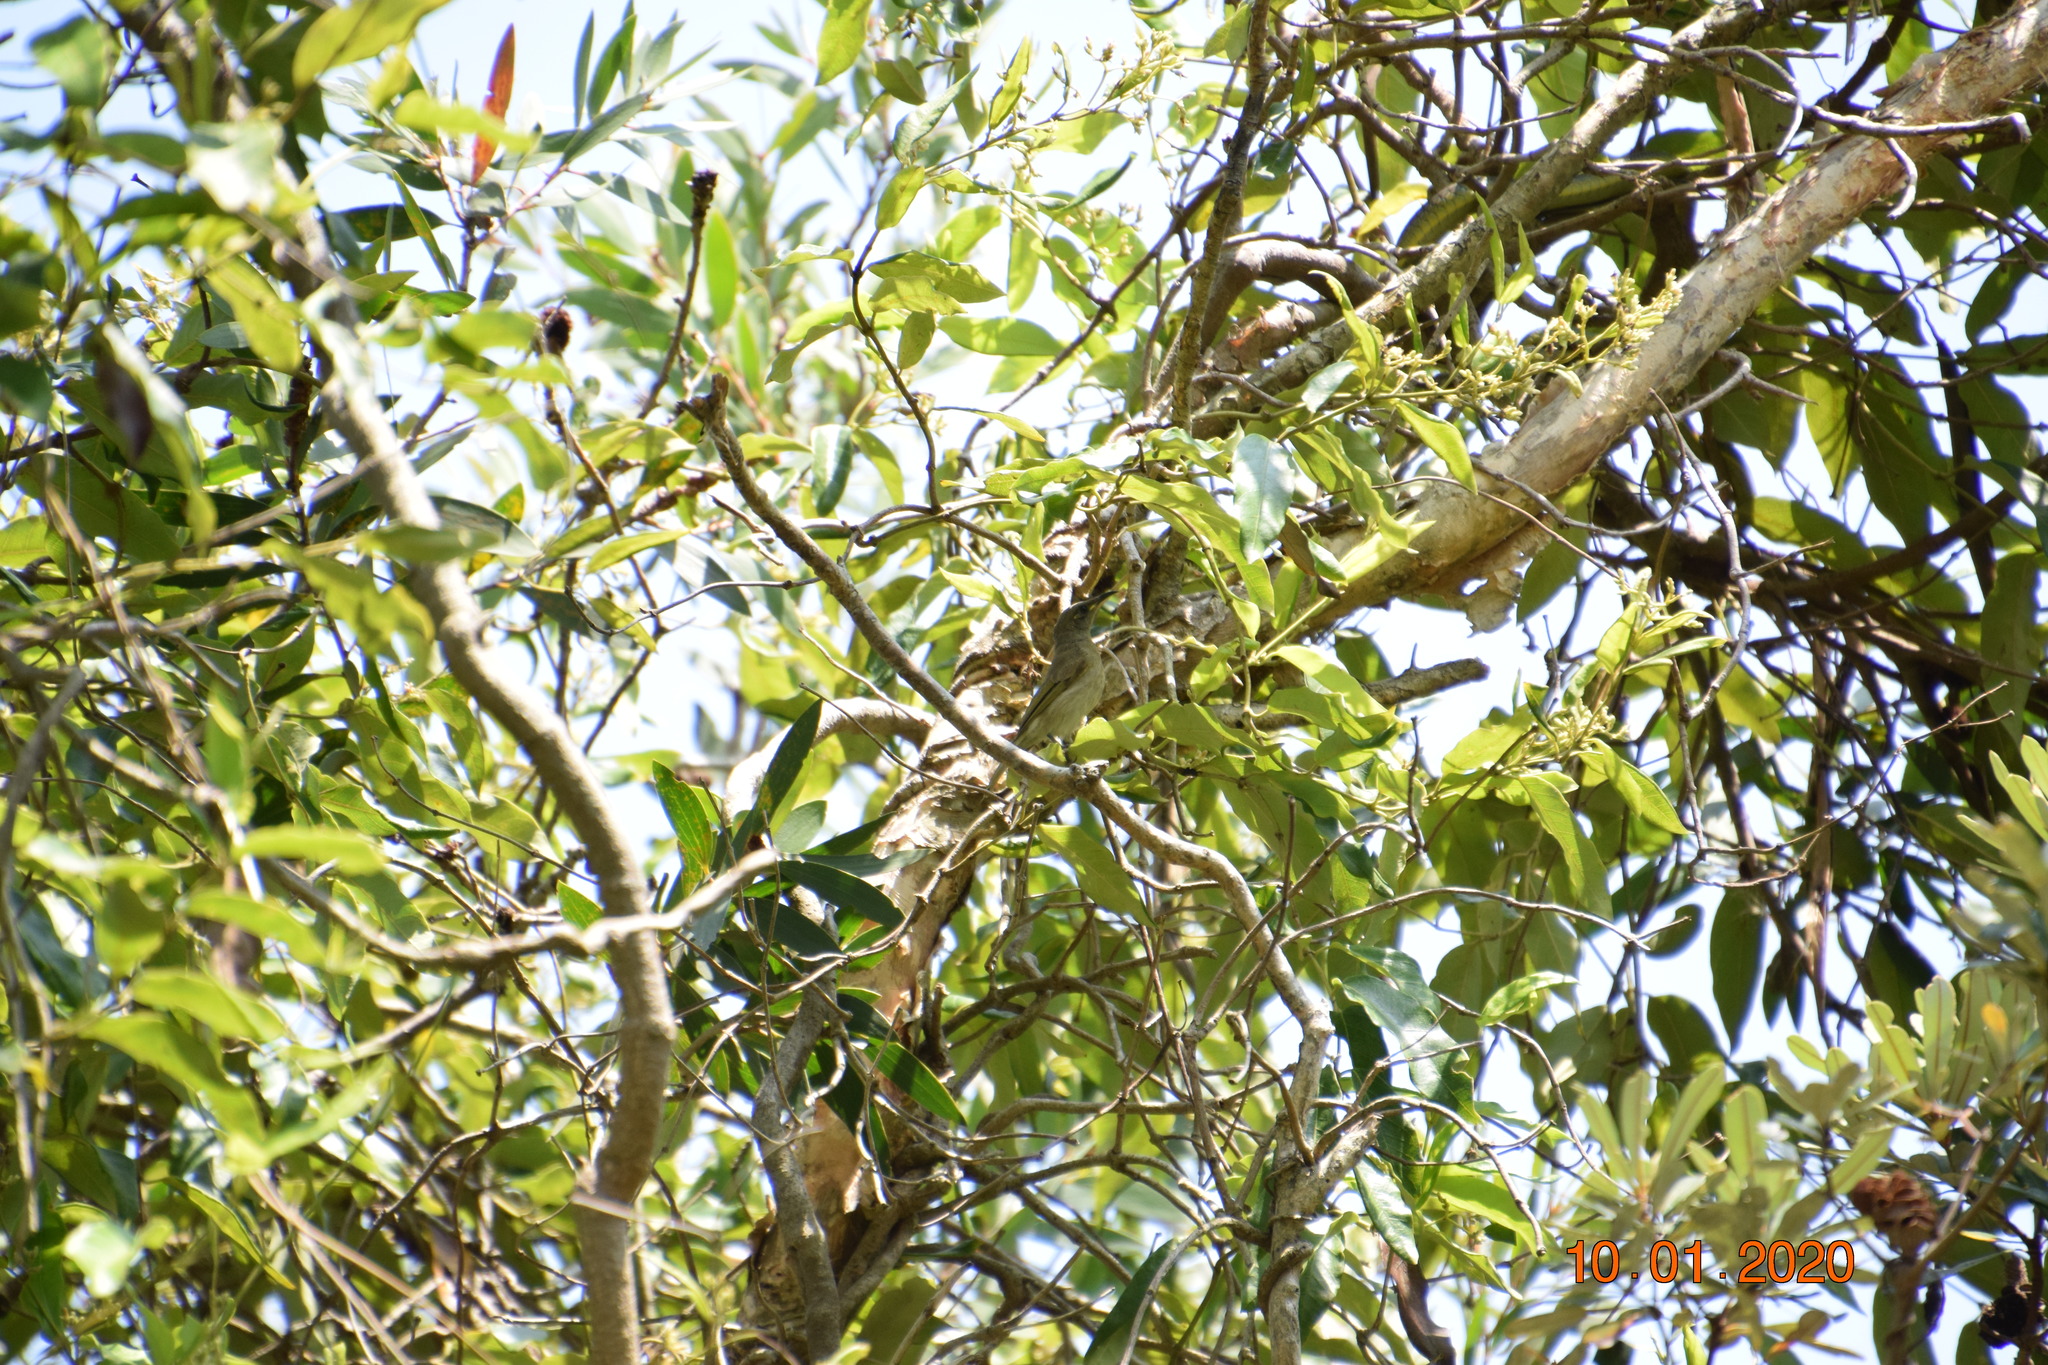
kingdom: Animalia
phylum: Chordata
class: Aves
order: Passeriformes
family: Meliphagidae
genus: Lichmera
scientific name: Lichmera indistincta
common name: Brown honeyeater
